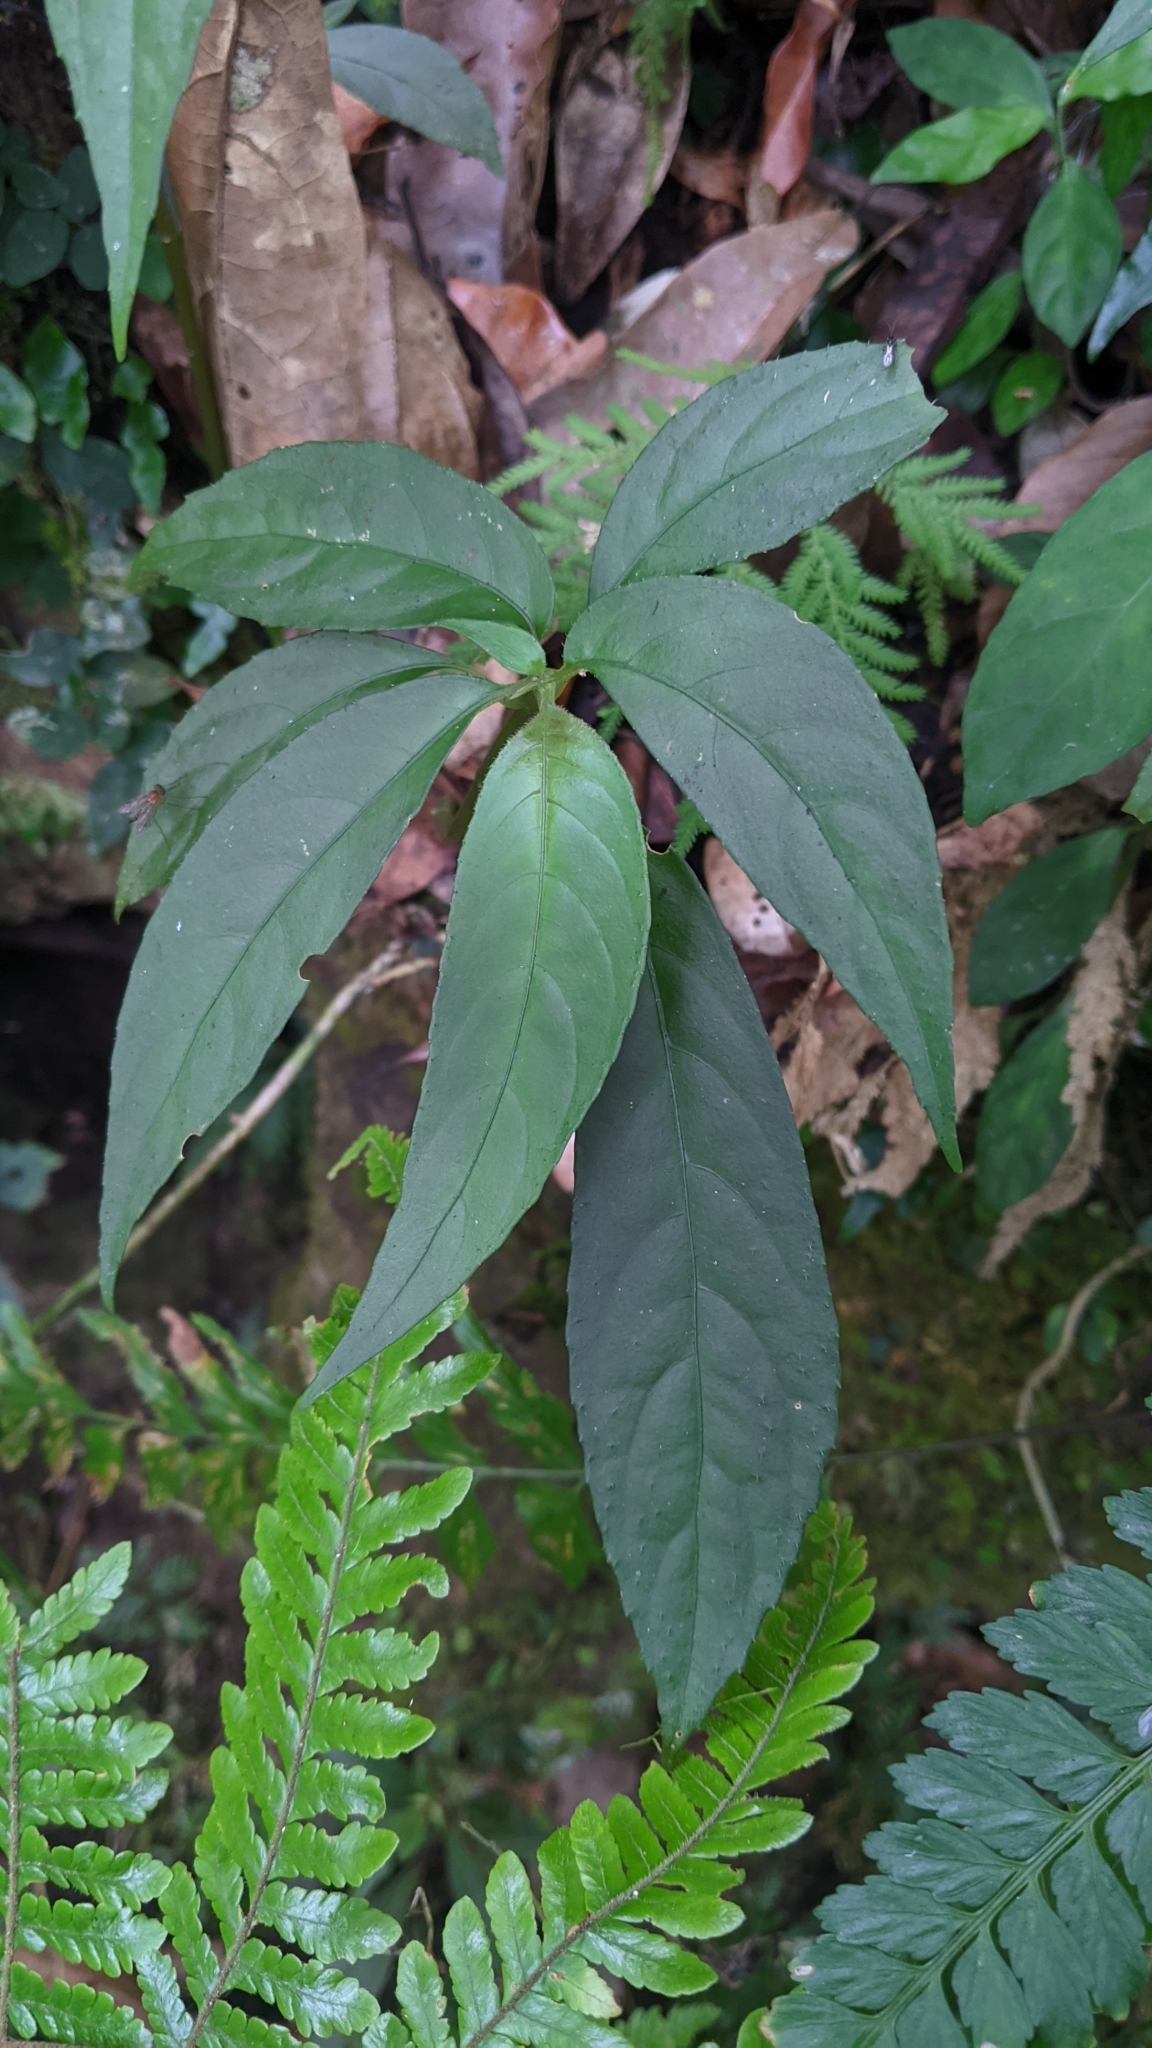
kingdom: Plantae
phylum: Tracheophyta
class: Magnoliopsida
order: Lamiales
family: Gesneriaceae
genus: Hemiboea
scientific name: Hemiboea bicornuta
